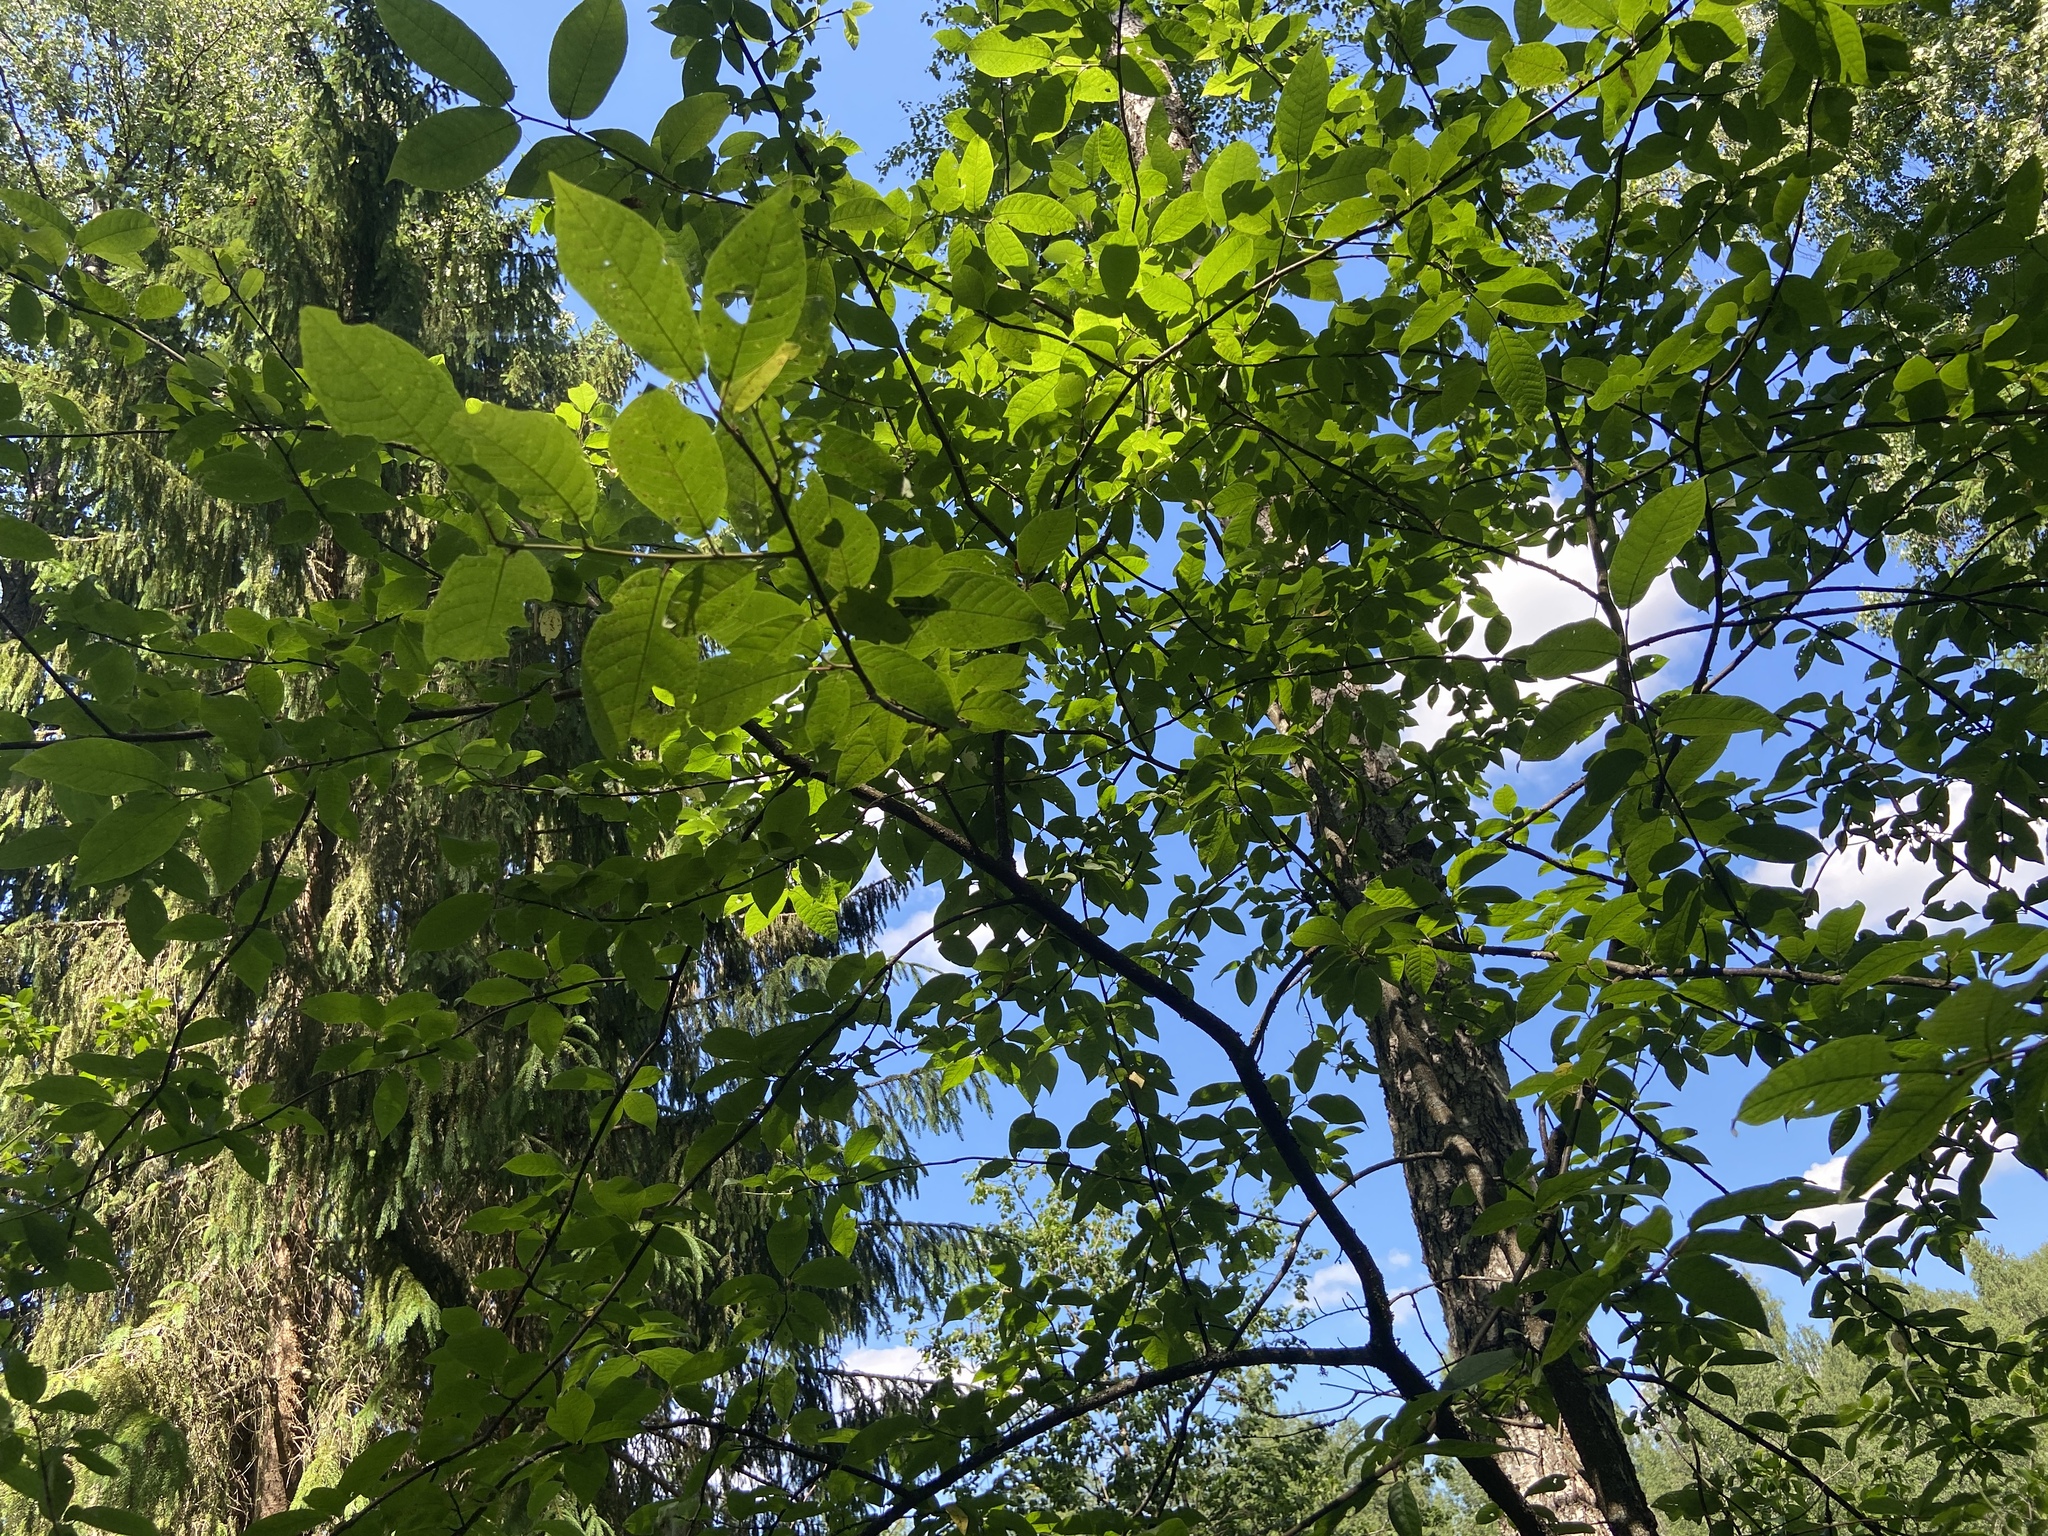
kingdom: Plantae
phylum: Tracheophyta
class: Magnoliopsida
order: Rosales
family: Rosaceae
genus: Prunus
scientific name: Prunus padus
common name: Bird cherry
